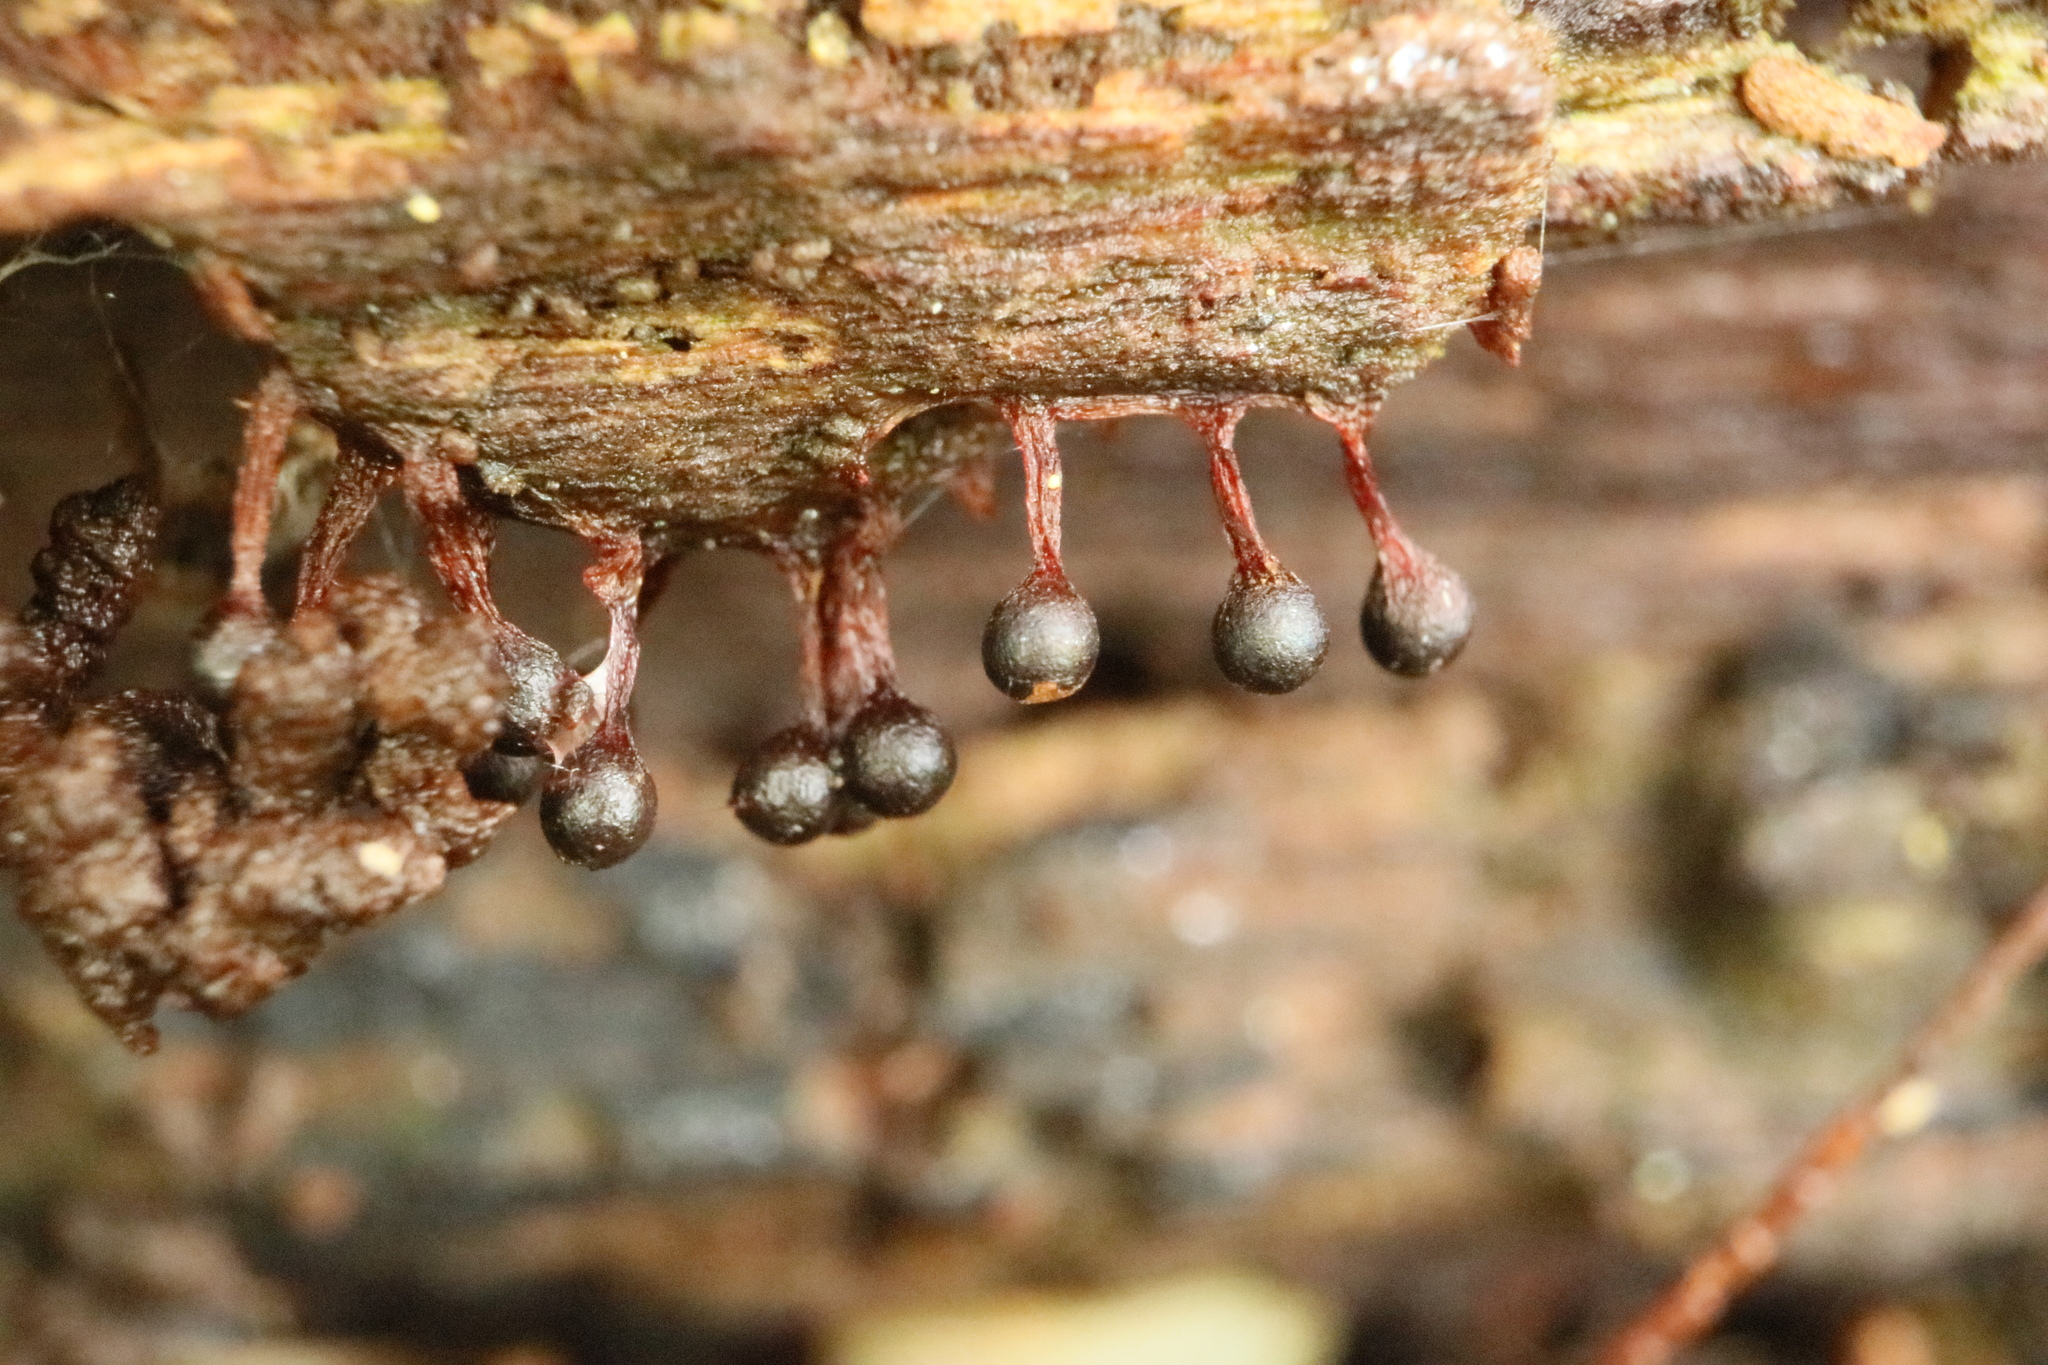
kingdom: Protozoa
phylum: Mycetozoa
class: Myxomycetes
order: Trichiales
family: Trichiaceae
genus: Metatrichia
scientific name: Metatrichia floriformis
